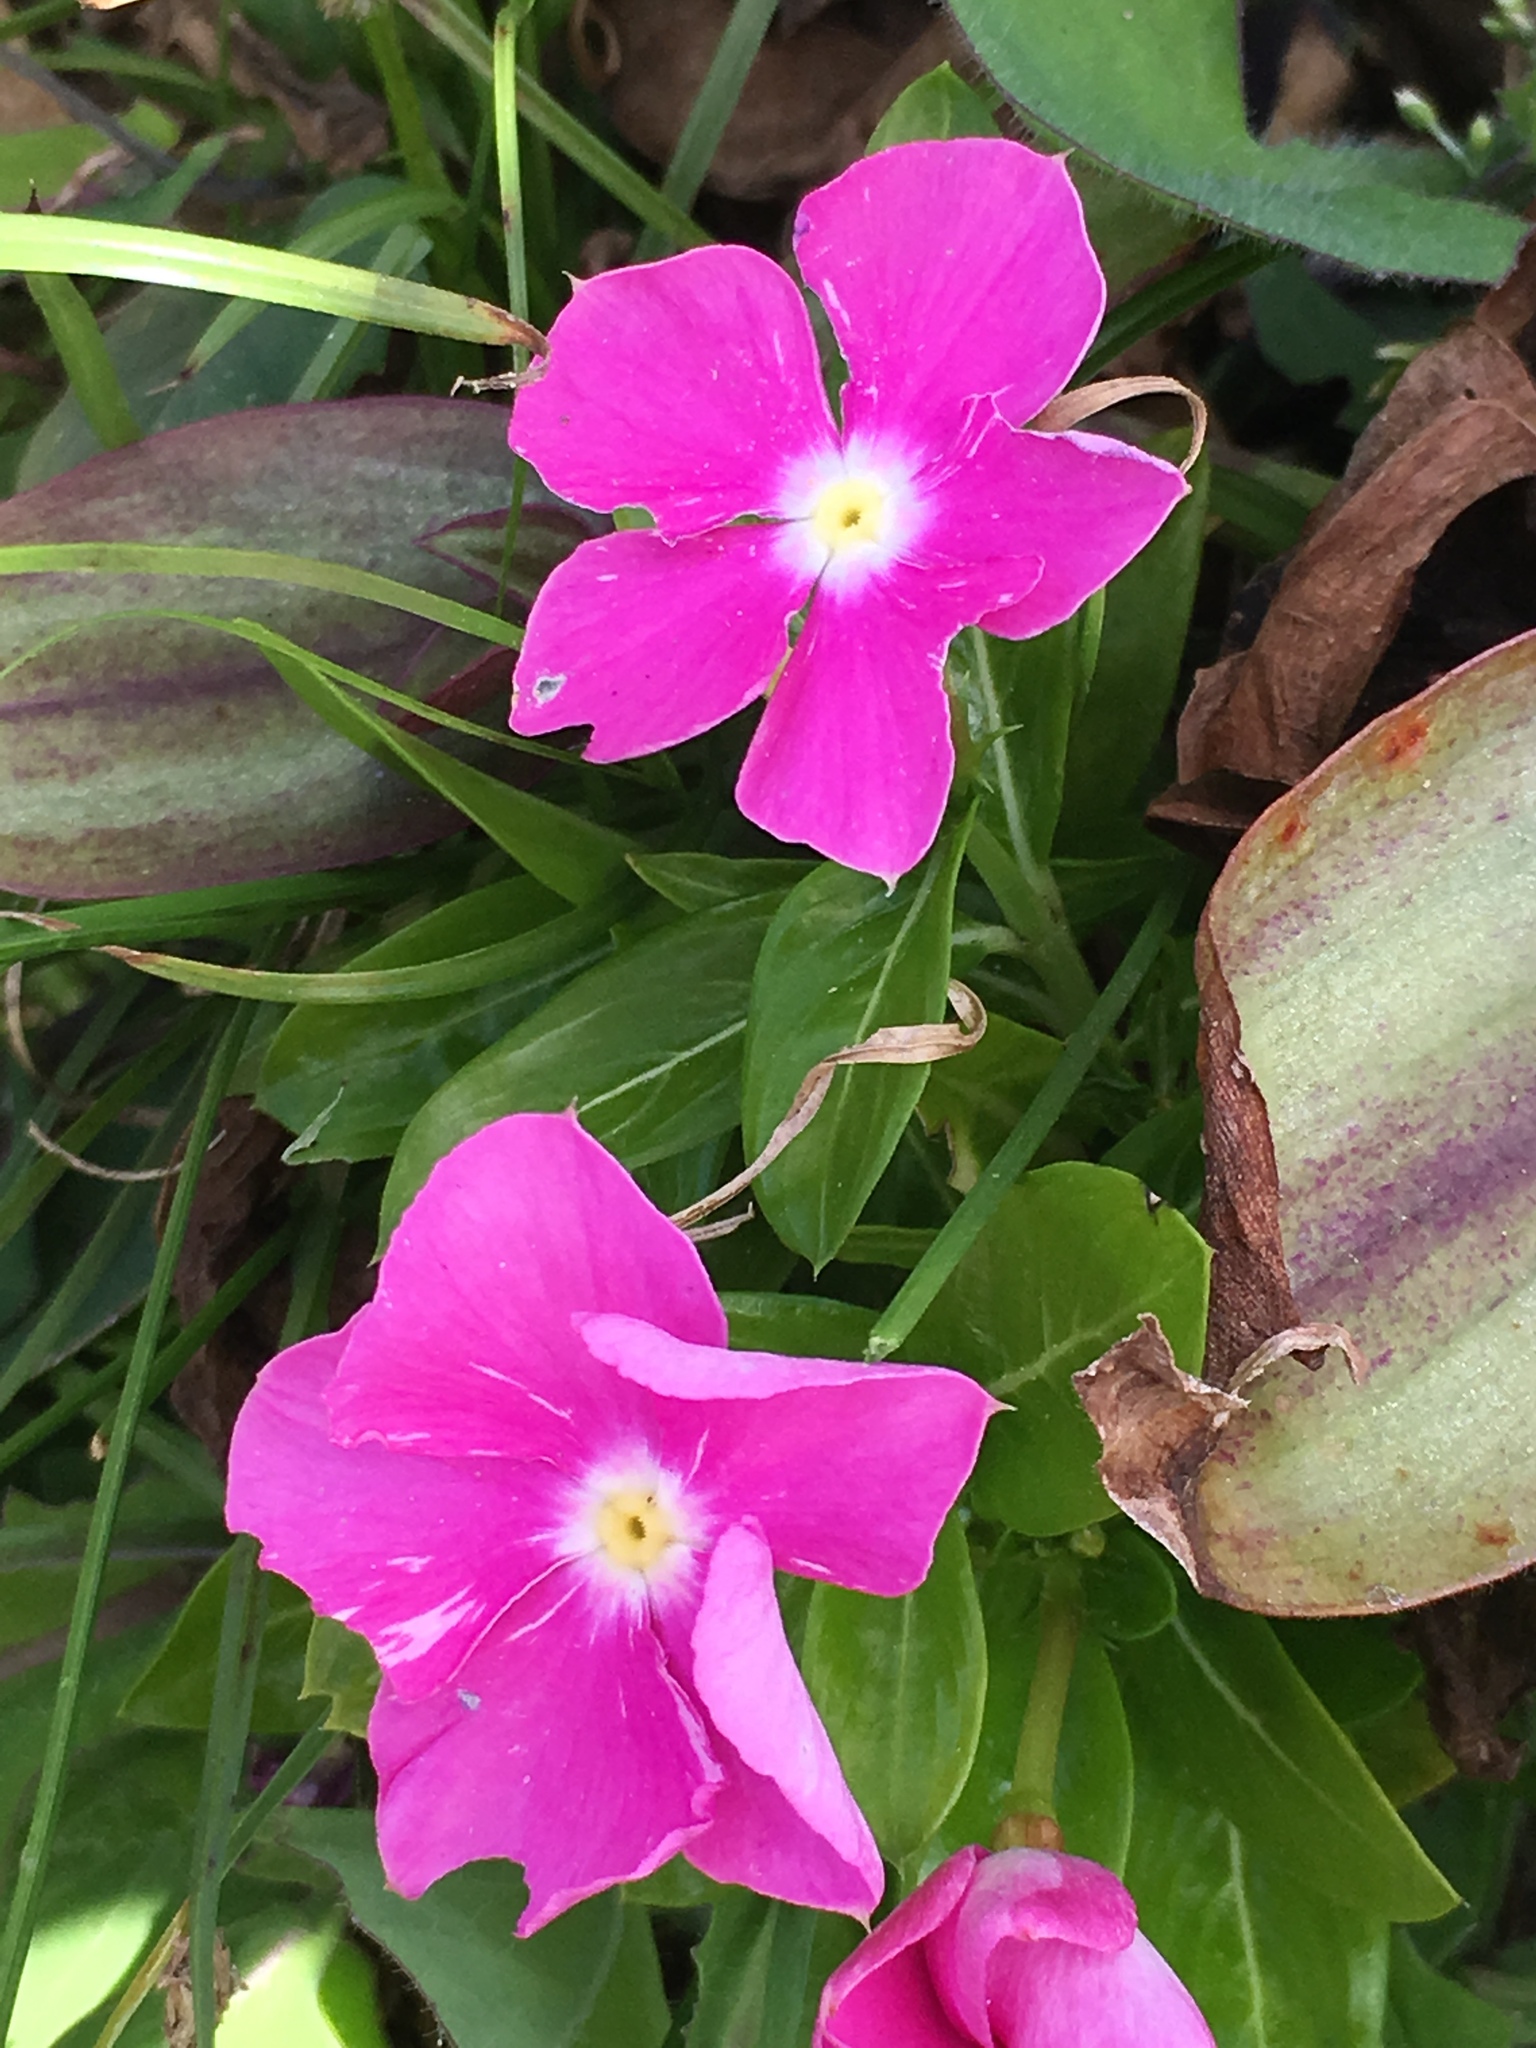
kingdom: Plantae
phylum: Tracheophyta
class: Magnoliopsida
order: Gentianales
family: Apocynaceae
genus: Catharanthus
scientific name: Catharanthus roseus
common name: Madagascar periwinkle
